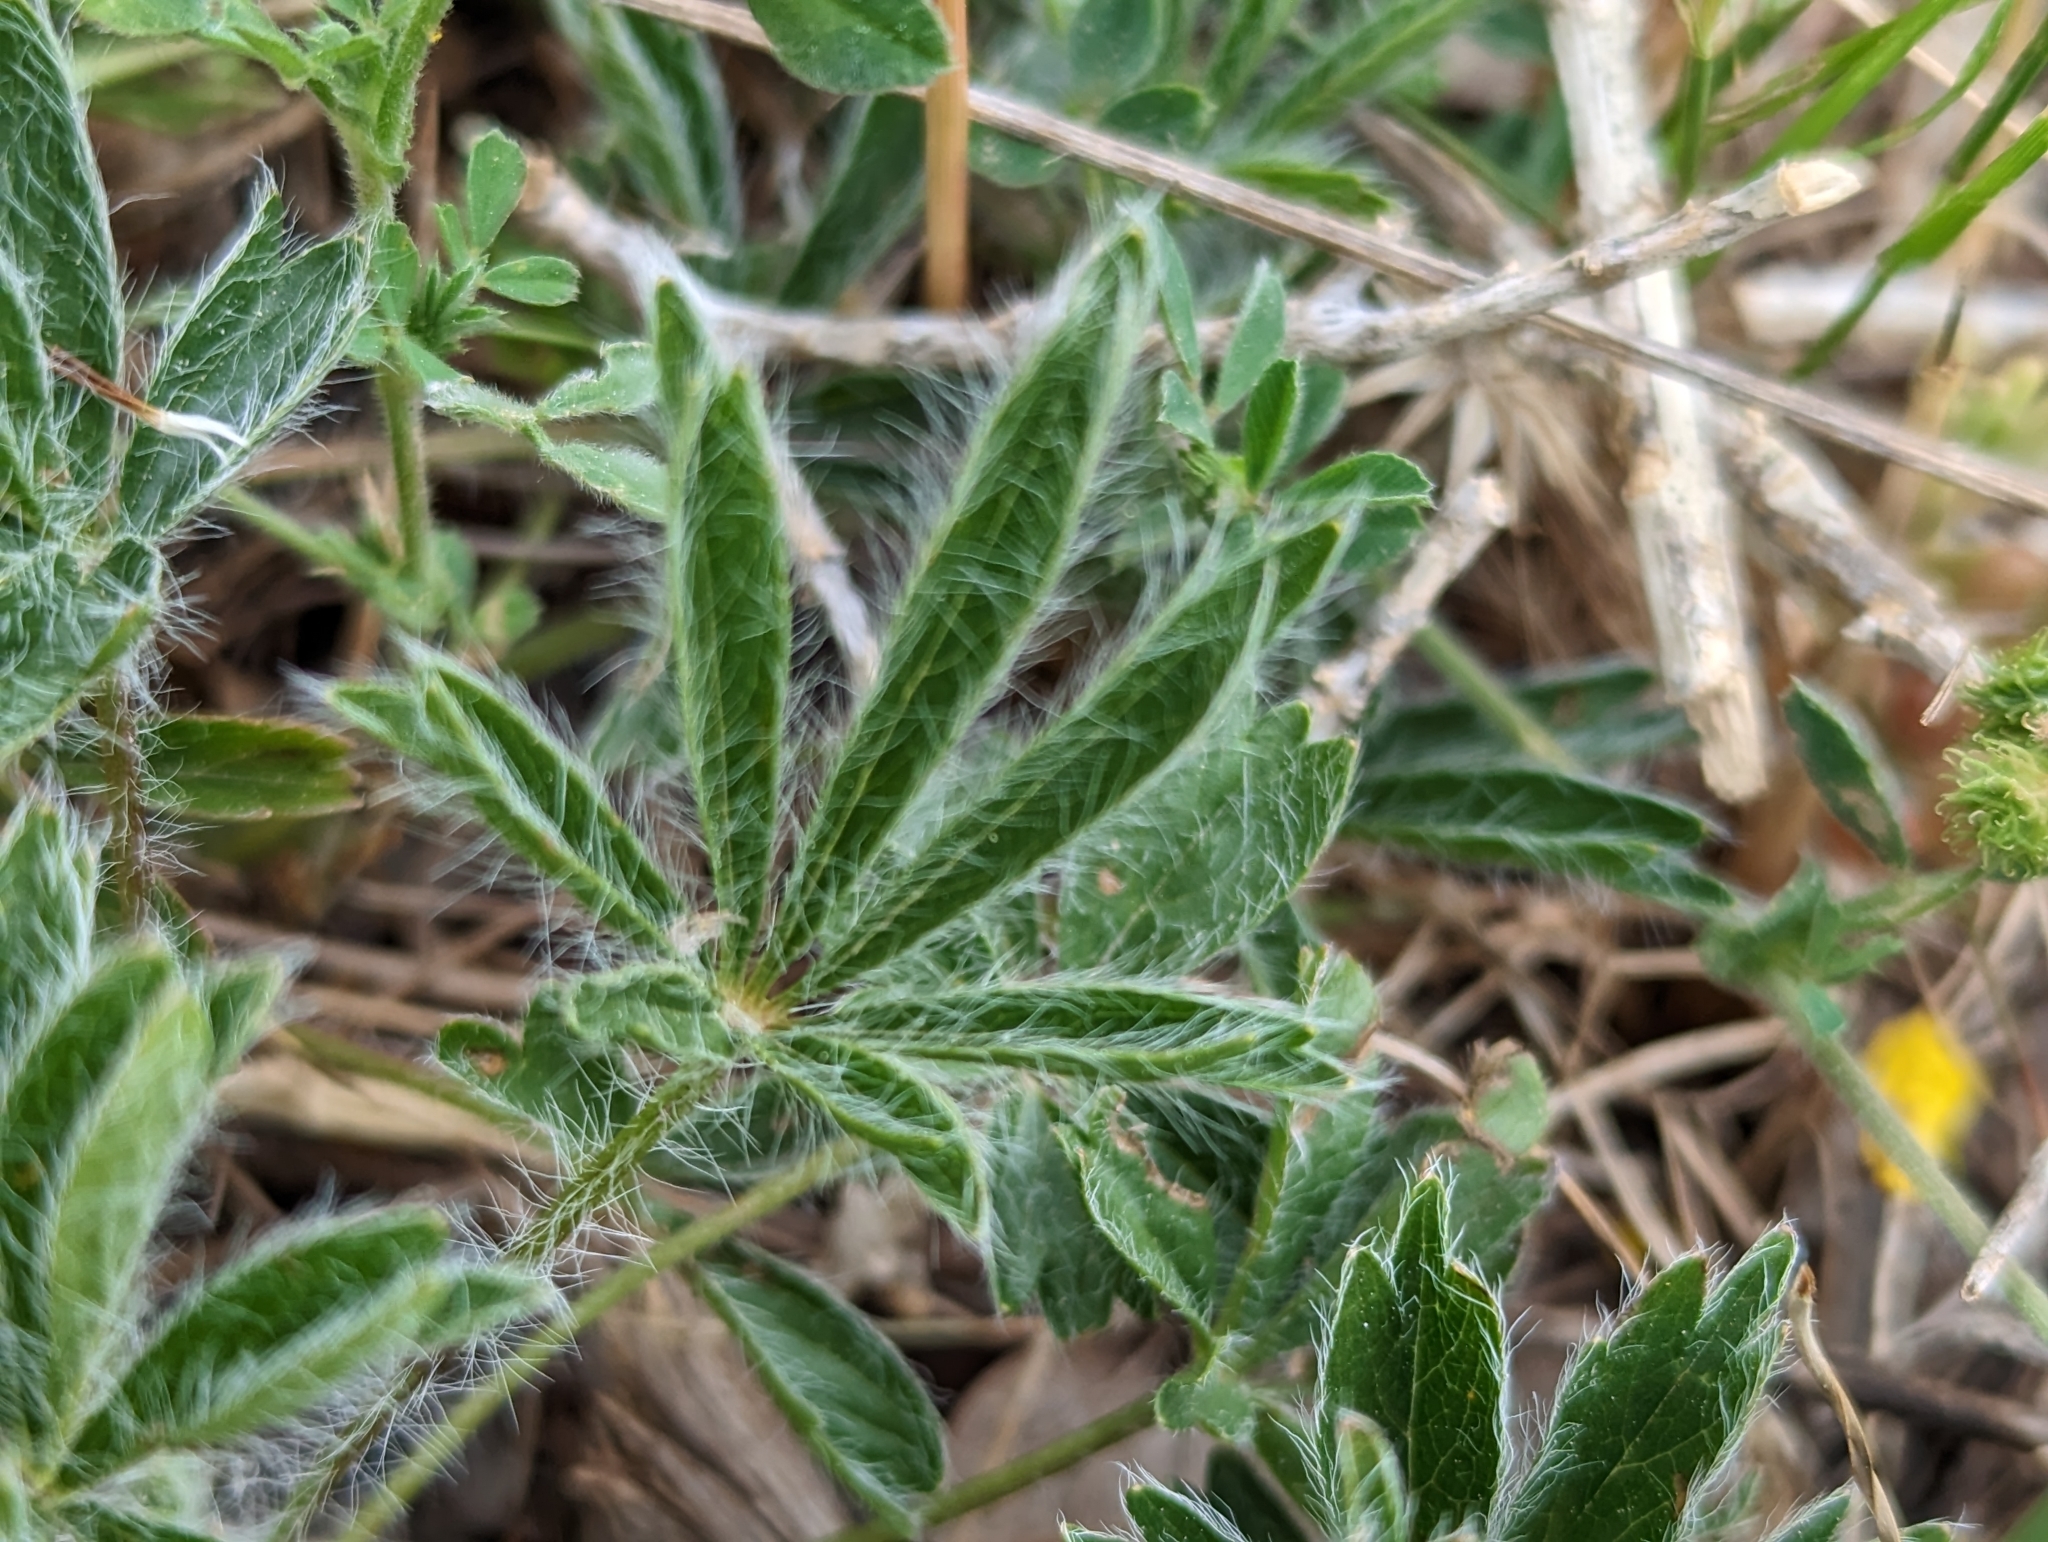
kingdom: Plantae
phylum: Tracheophyta
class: Magnoliopsida
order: Rosales
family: Rosaceae
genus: Potentilla
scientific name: Potentilla hirta
